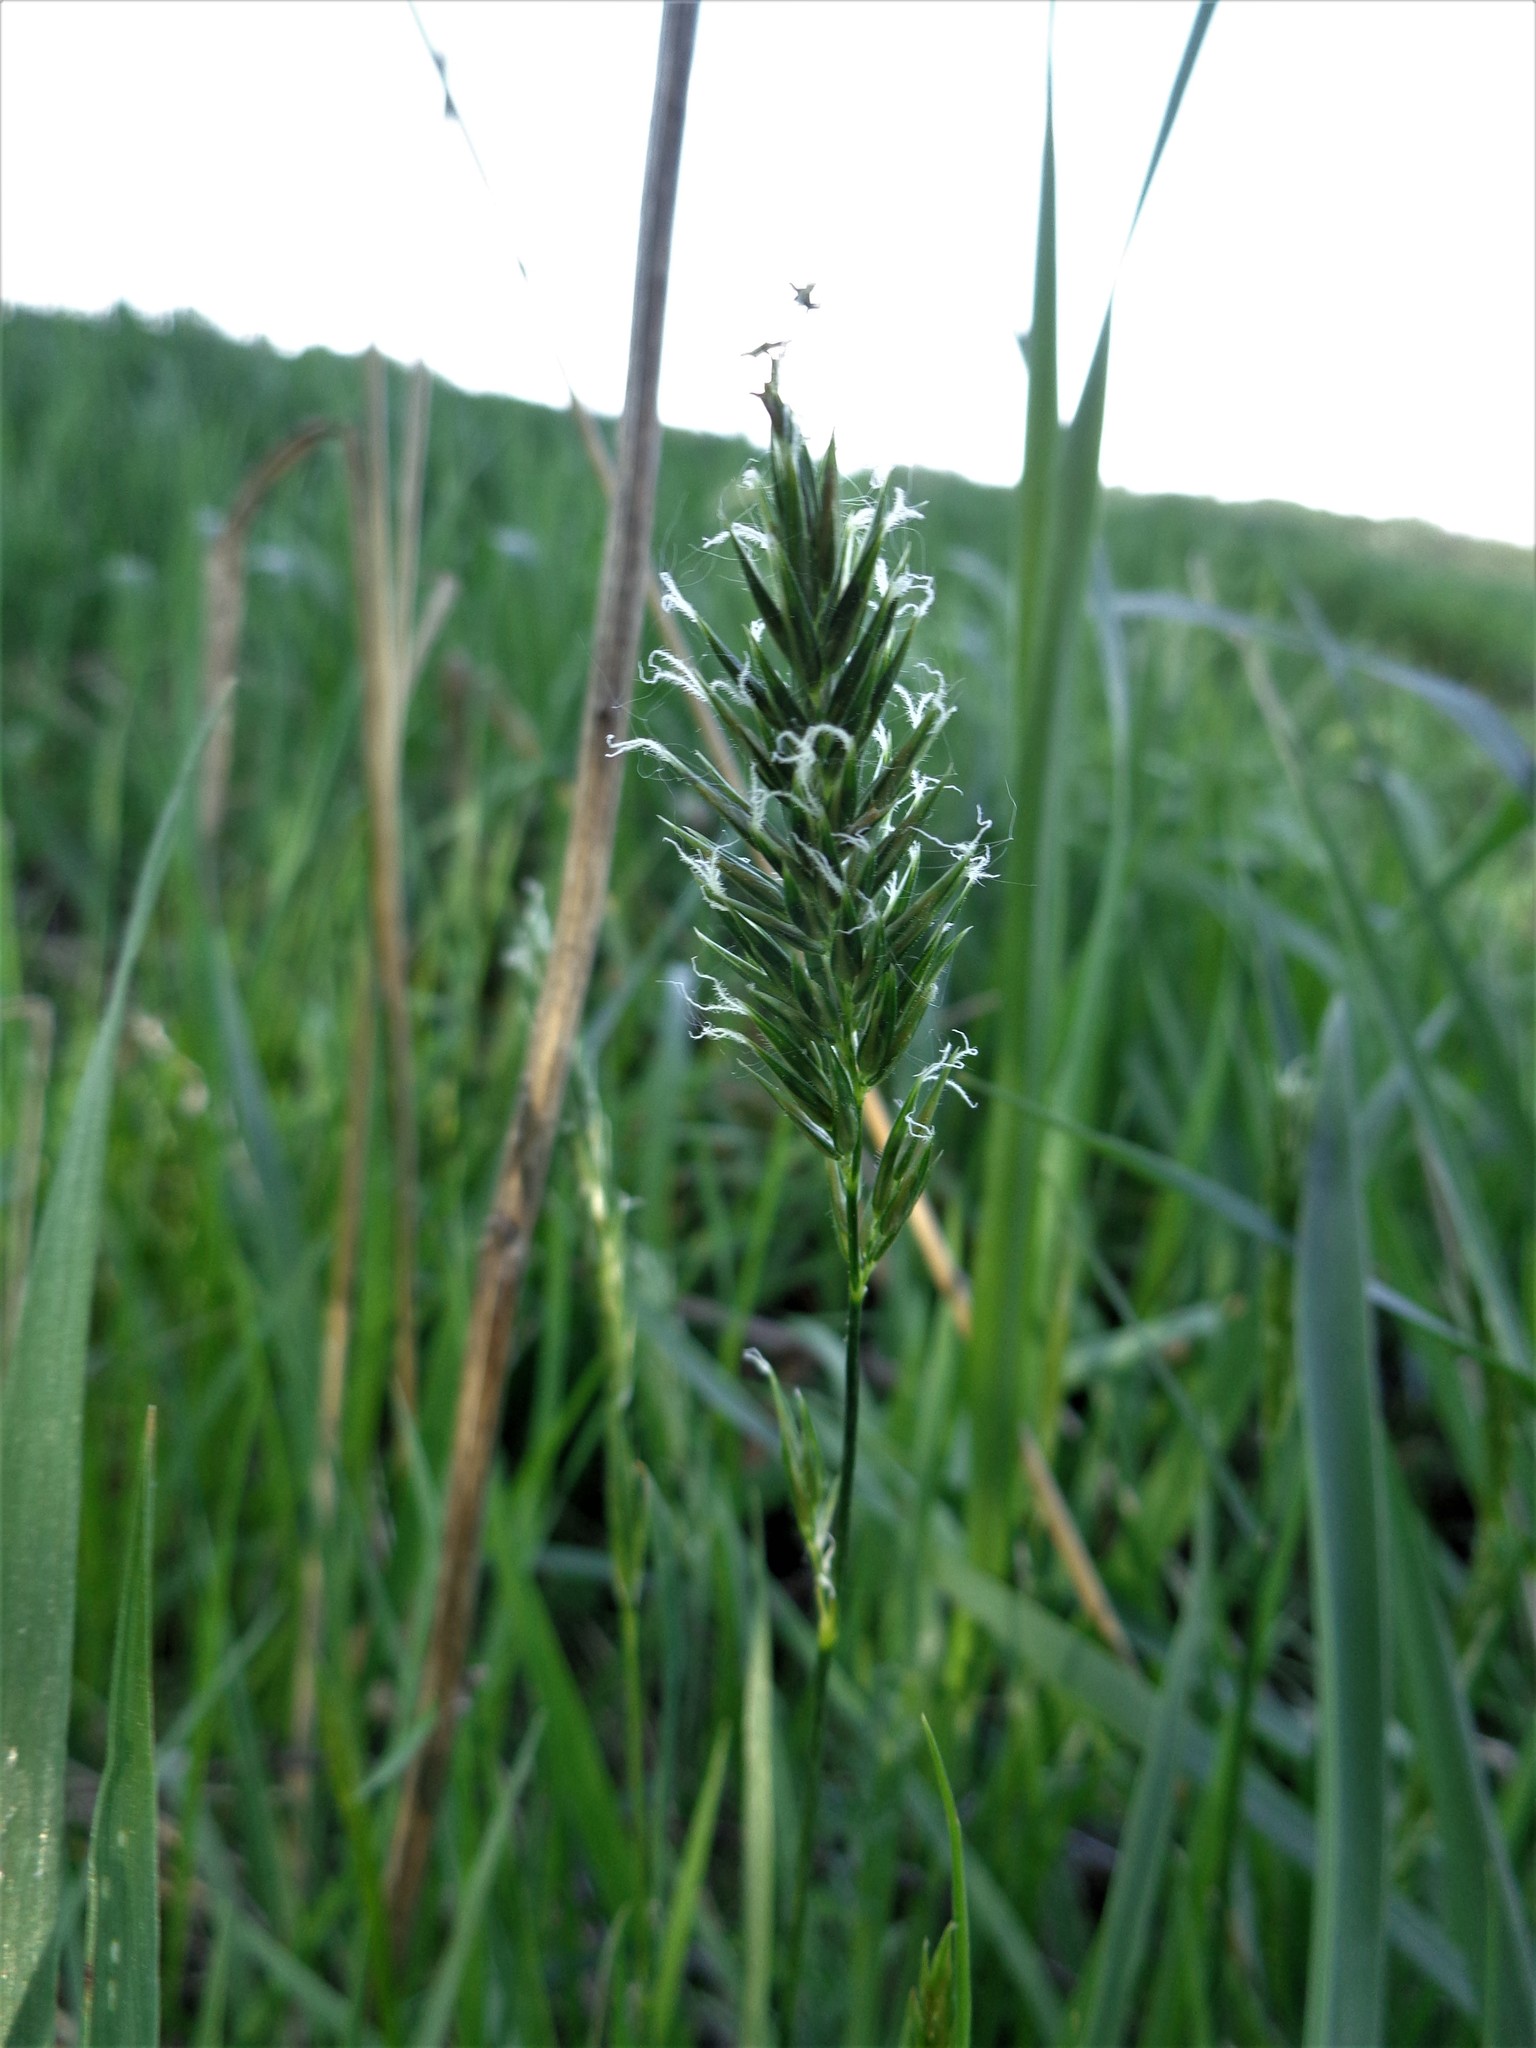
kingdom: Plantae
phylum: Tracheophyta
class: Liliopsida
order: Poales
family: Poaceae
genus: Anthoxanthum
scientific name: Anthoxanthum odoratum
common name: Sweet vernalgrass
